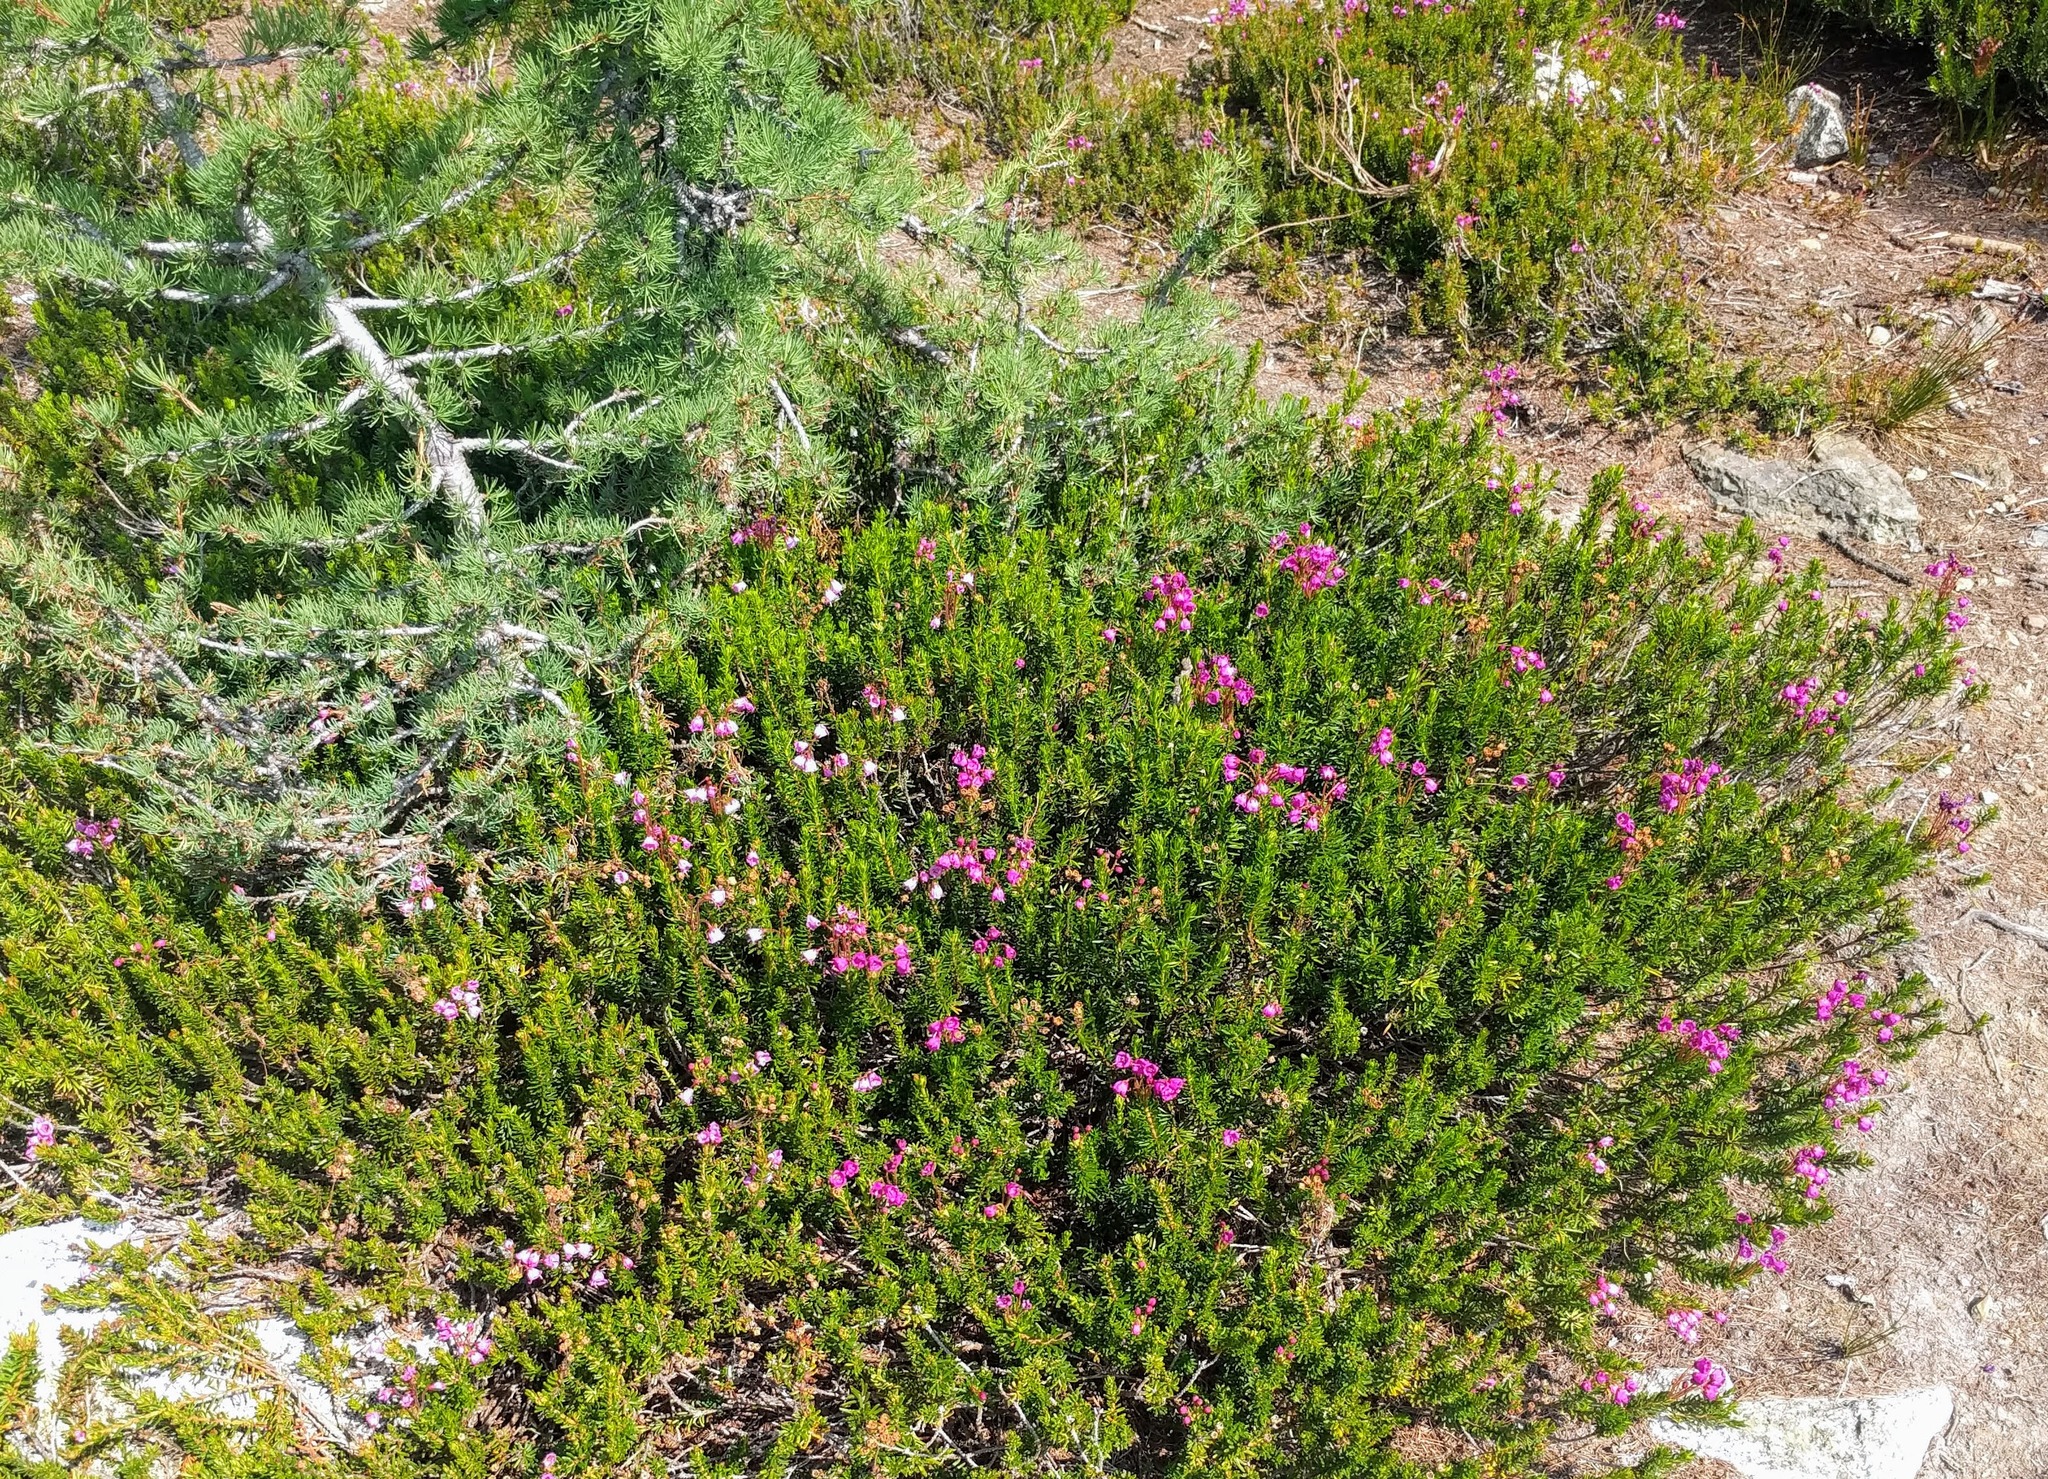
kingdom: Plantae
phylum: Tracheophyta
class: Magnoliopsida
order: Ericales
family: Ericaceae
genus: Phyllodoce
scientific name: Phyllodoce empetriformis
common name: Pink mountain heather
